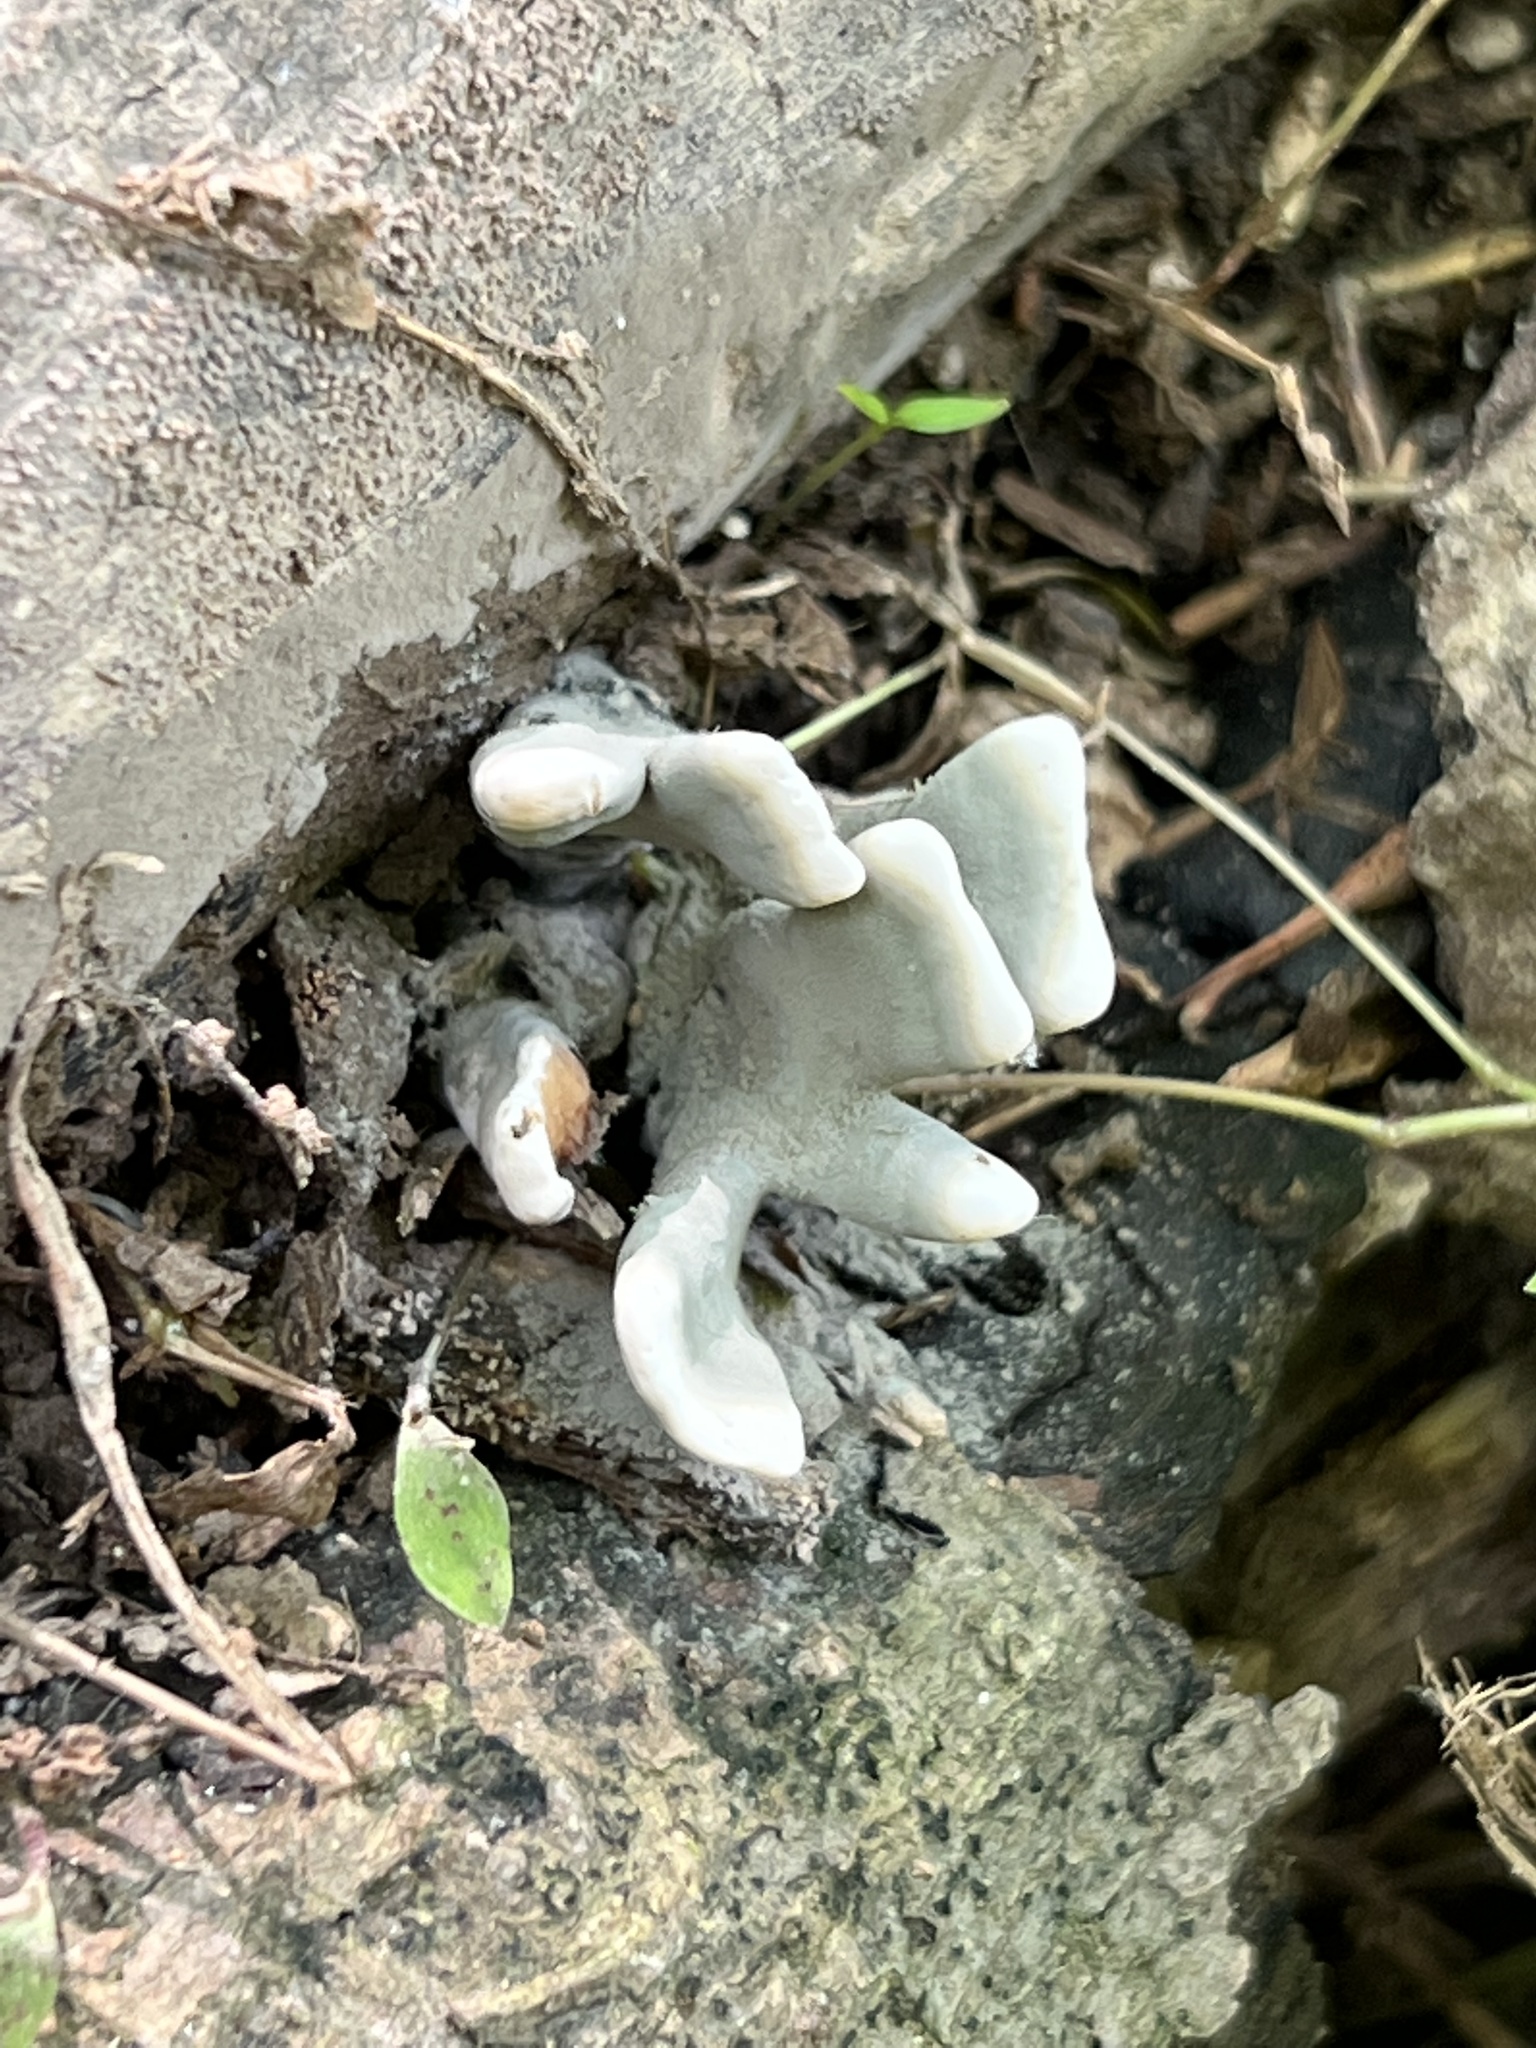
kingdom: Fungi
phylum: Ascomycota
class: Sordariomycetes
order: Xylariales
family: Xylariaceae
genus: Xylaria
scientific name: Xylaria polymorpha
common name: Dead man's fingers
